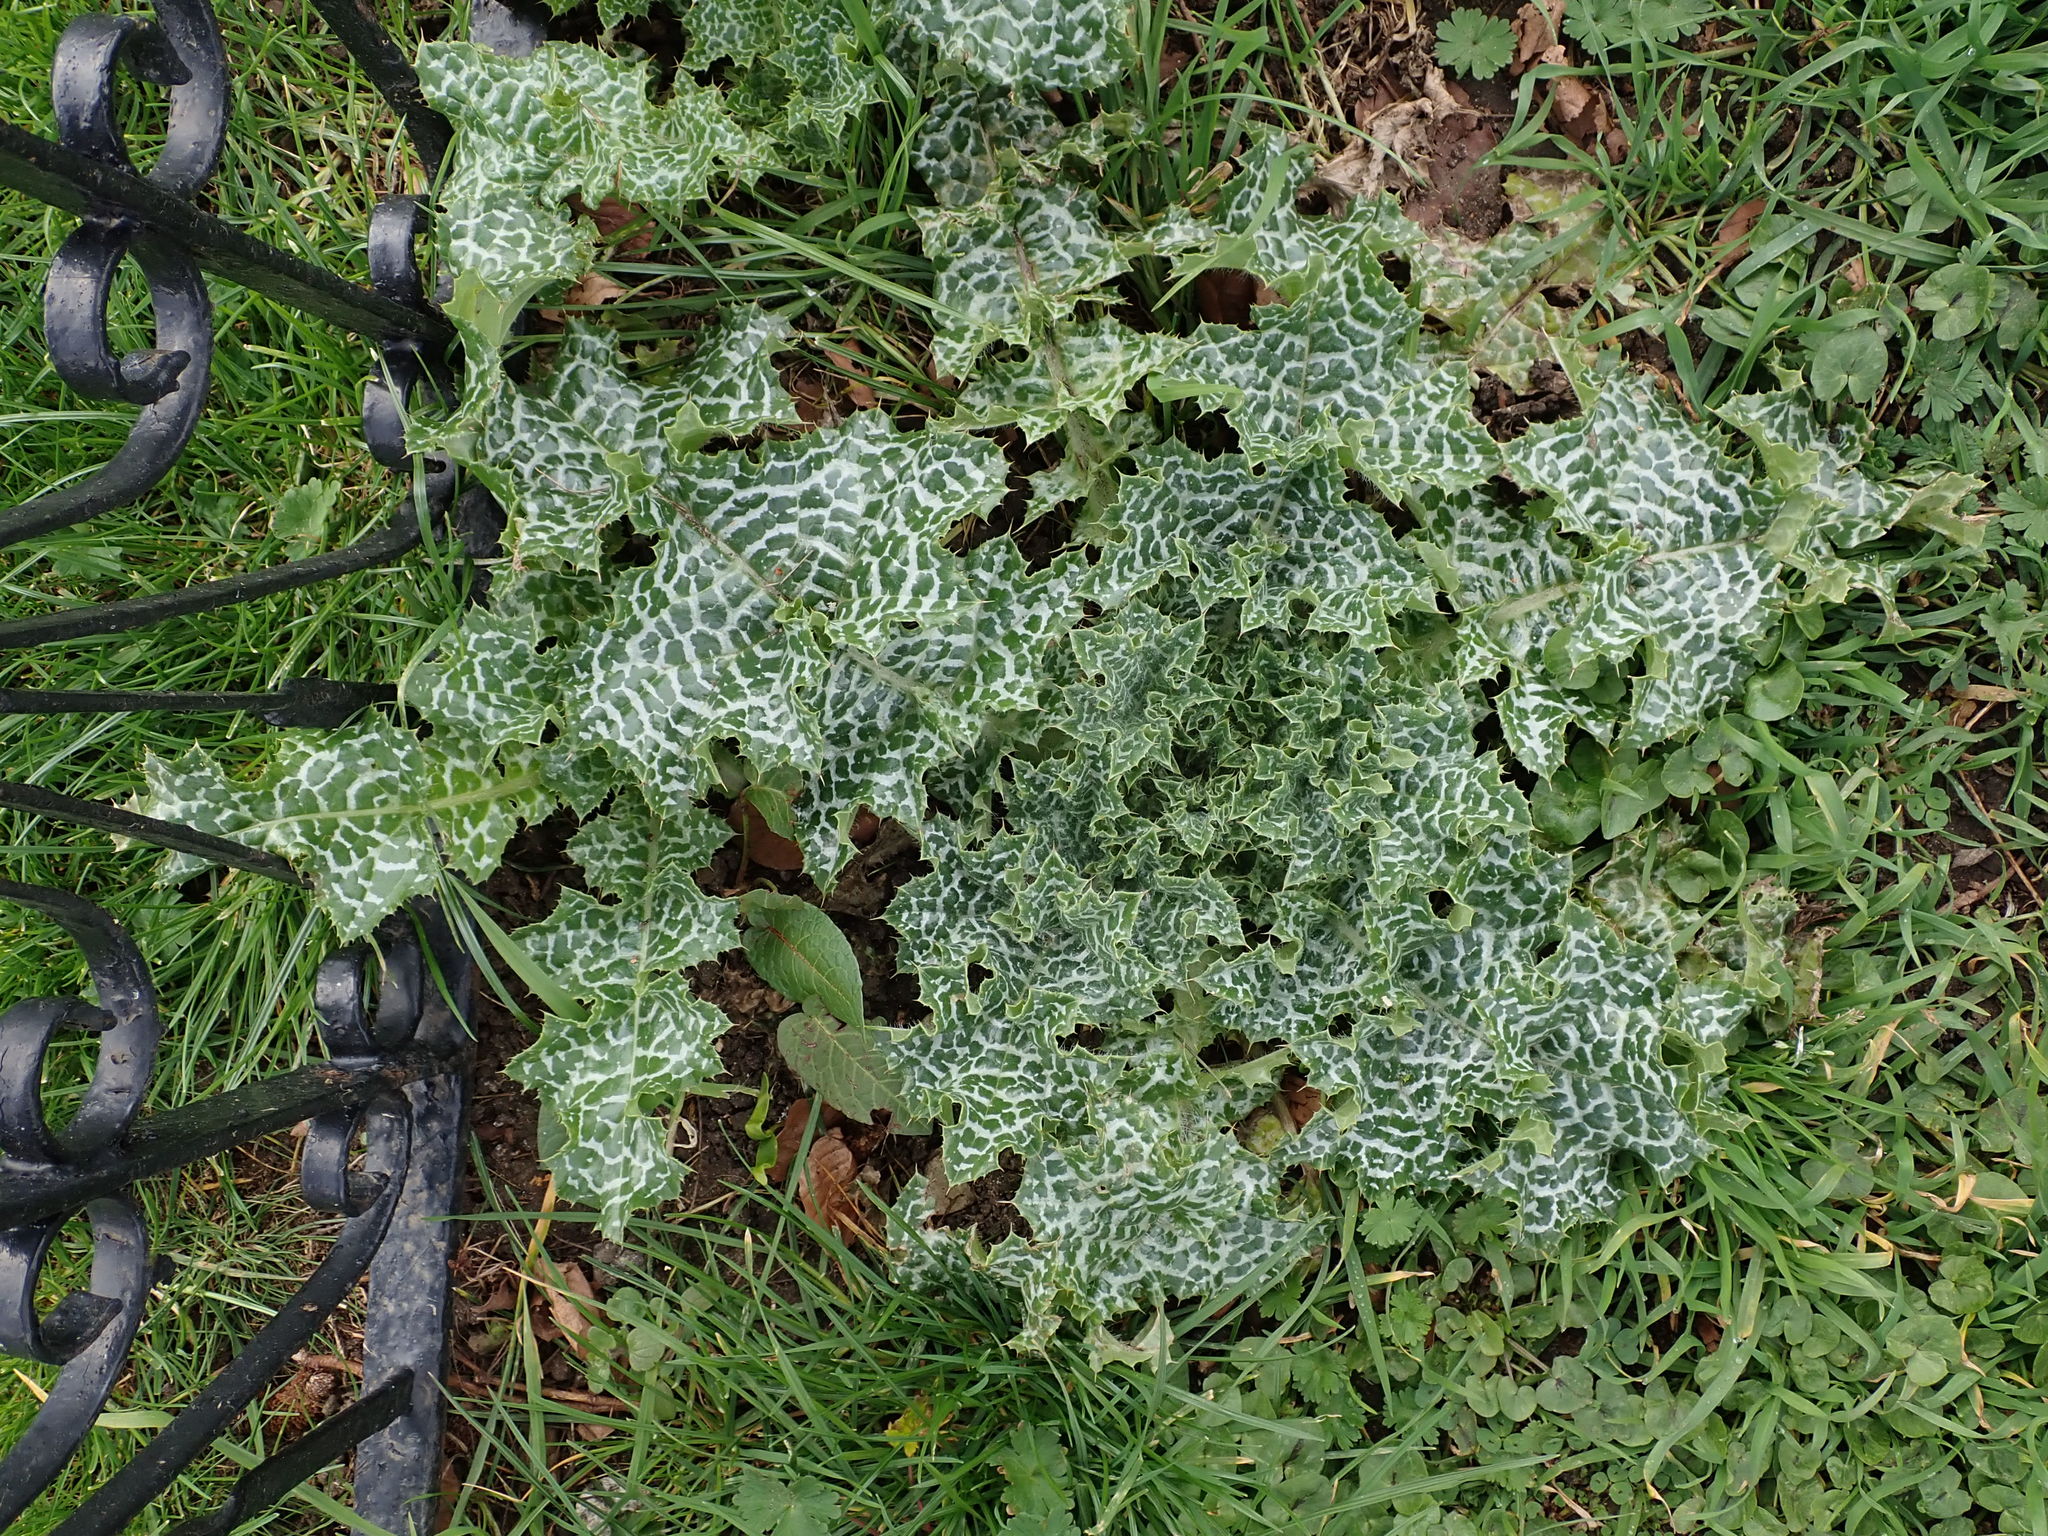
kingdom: Plantae
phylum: Tracheophyta
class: Magnoliopsida
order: Asterales
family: Asteraceae
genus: Silybum
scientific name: Silybum marianum
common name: Milk thistle
